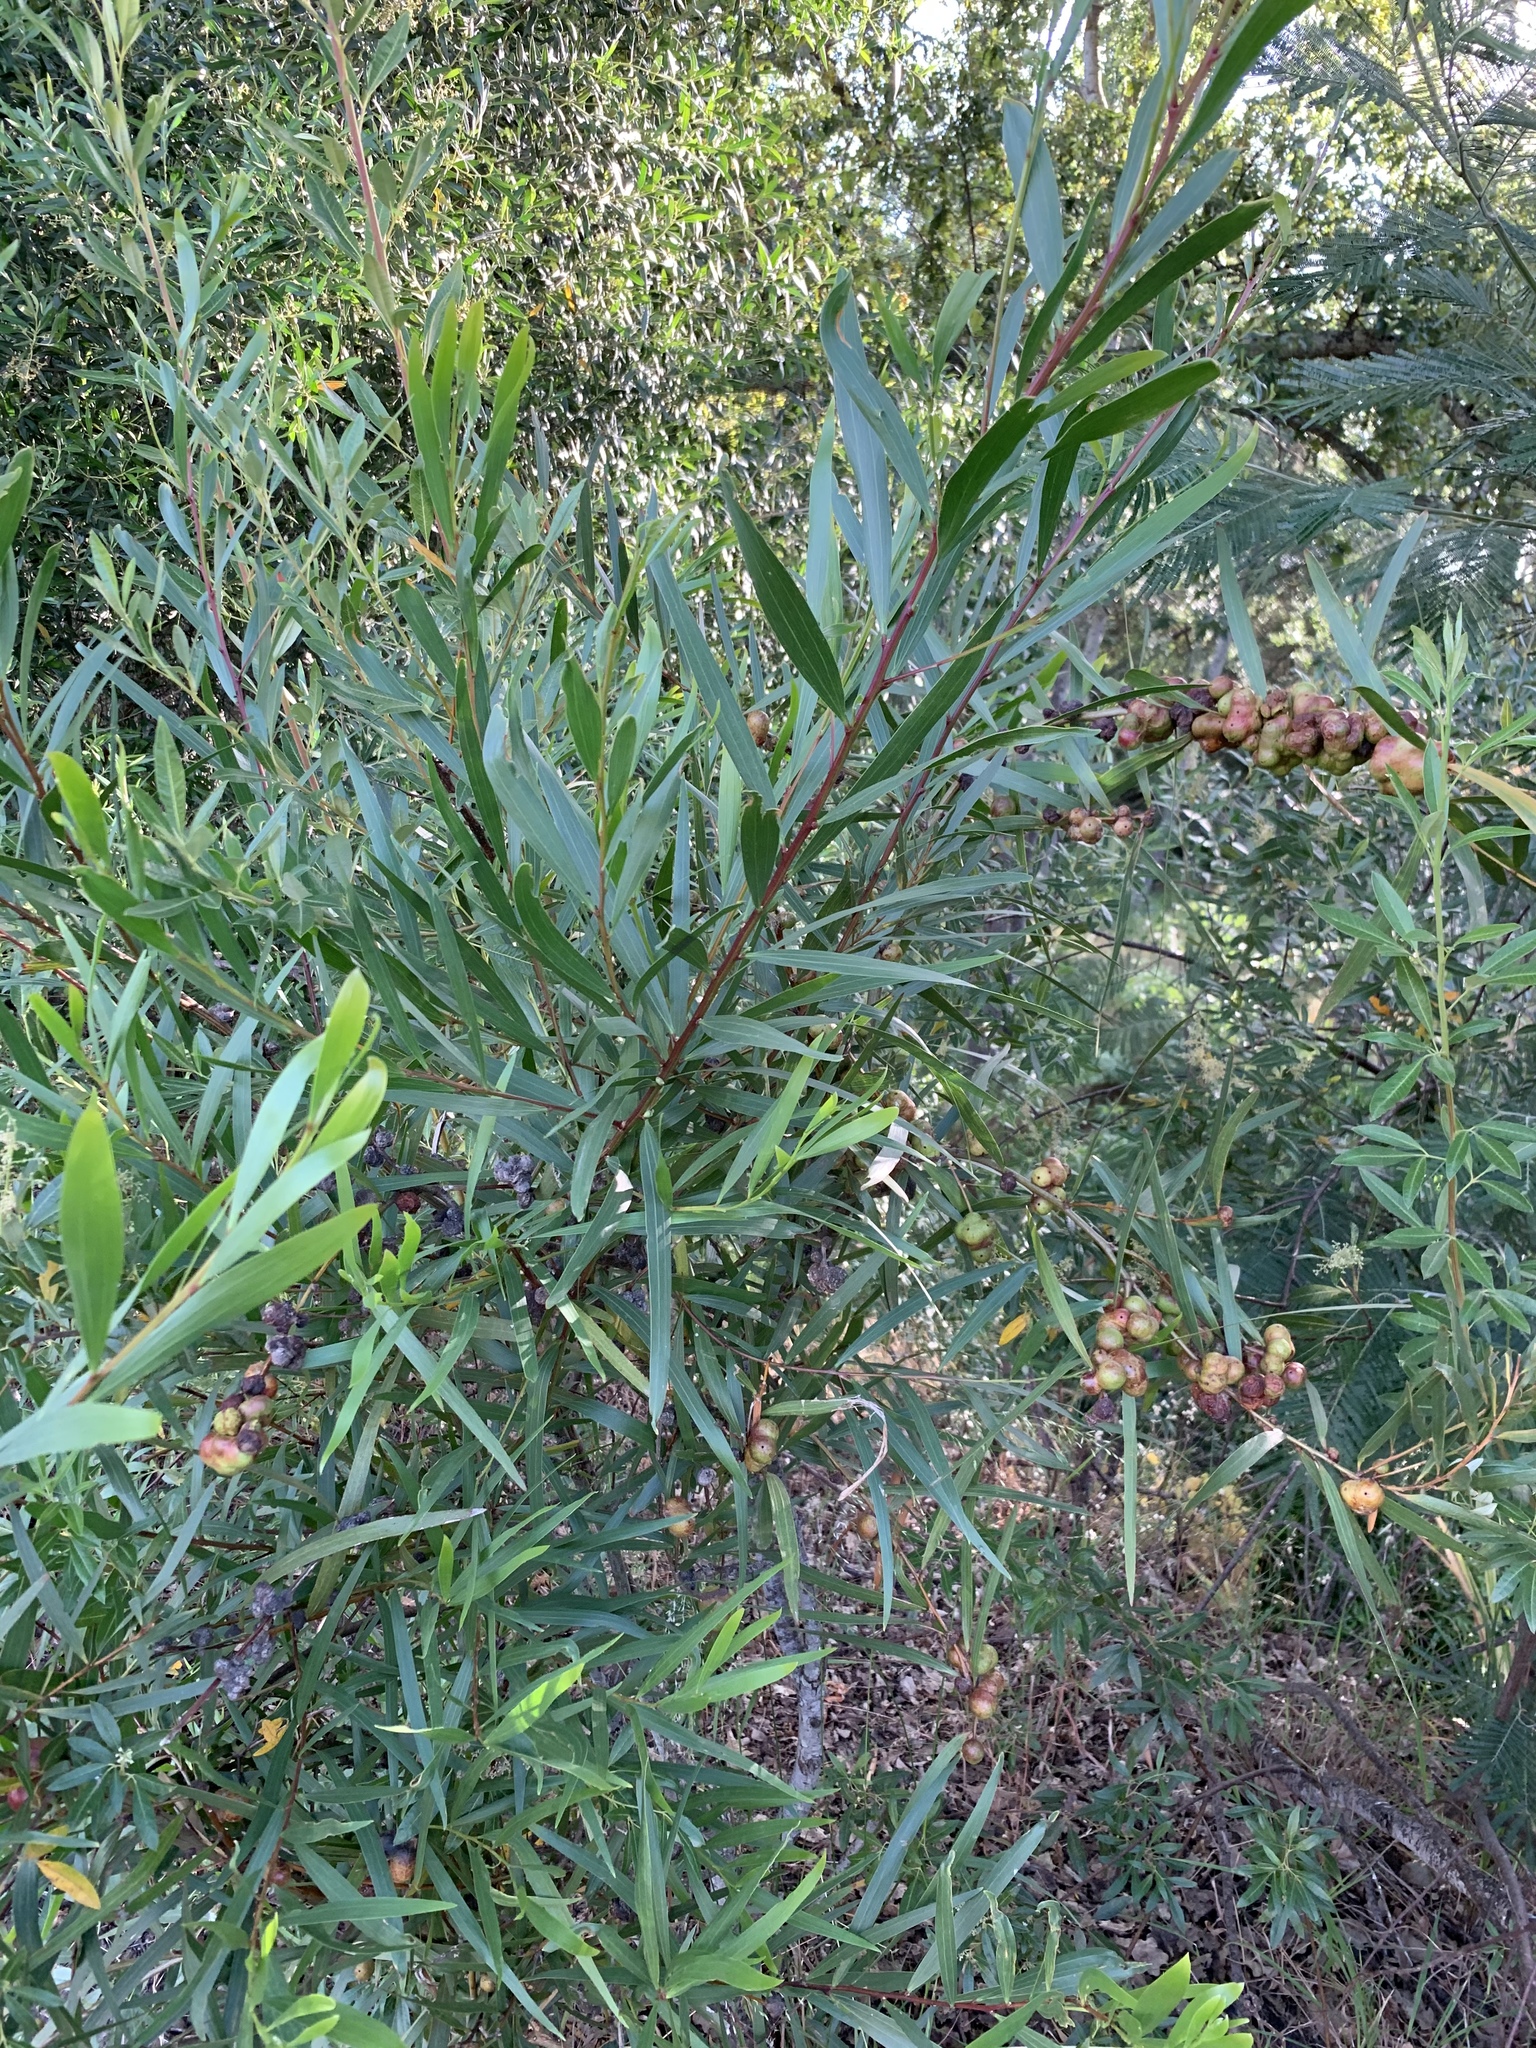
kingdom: Plantae
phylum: Tracheophyta
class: Magnoliopsida
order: Fabales
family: Fabaceae
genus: Acacia
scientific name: Acacia longifolia
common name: Sydney golden wattle
